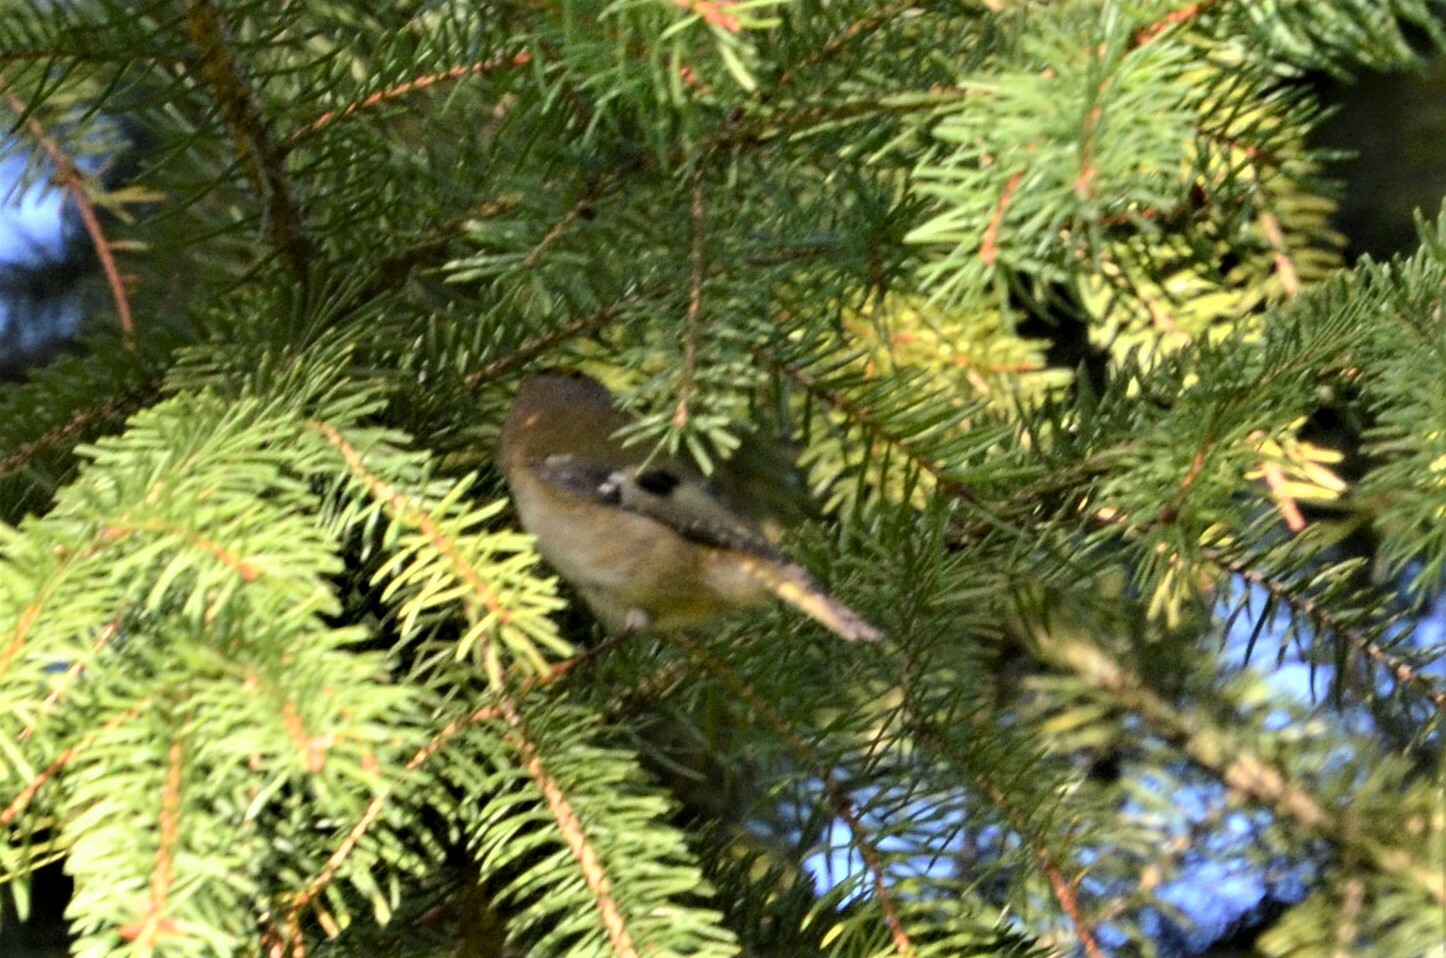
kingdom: Animalia
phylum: Chordata
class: Aves
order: Passeriformes
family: Regulidae
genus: Regulus
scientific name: Regulus regulus
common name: Goldcrest
